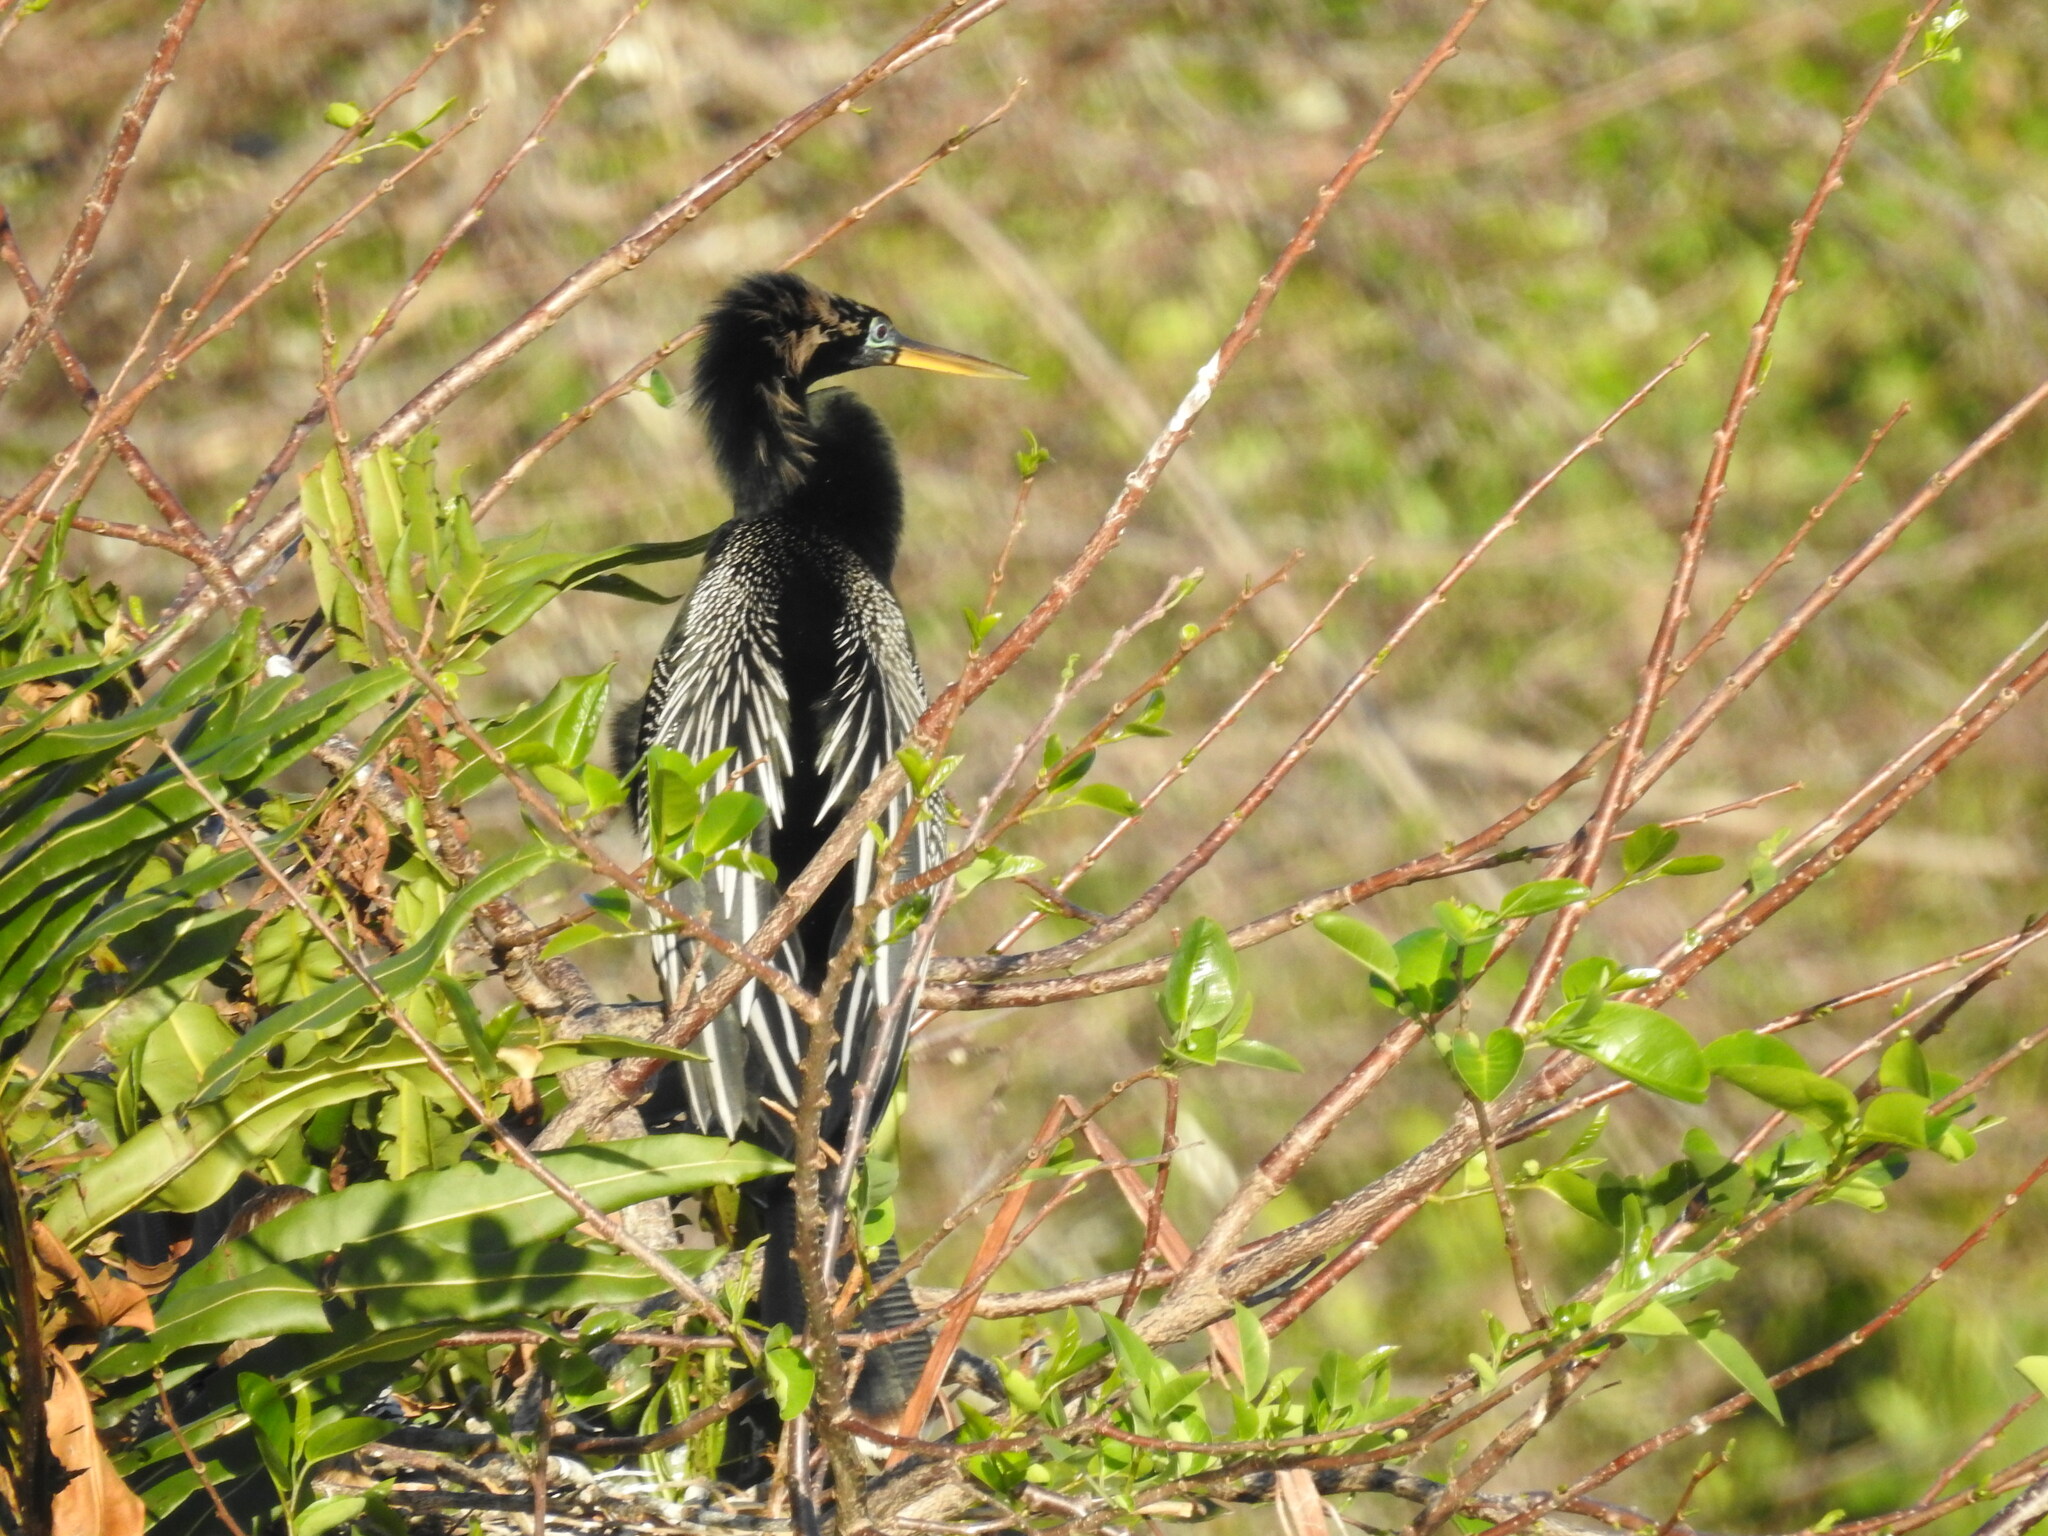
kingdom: Animalia
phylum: Chordata
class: Aves
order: Suliformes
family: Anhingidae
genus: Anhinga
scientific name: Anhinga anhinga
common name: Anhinga
